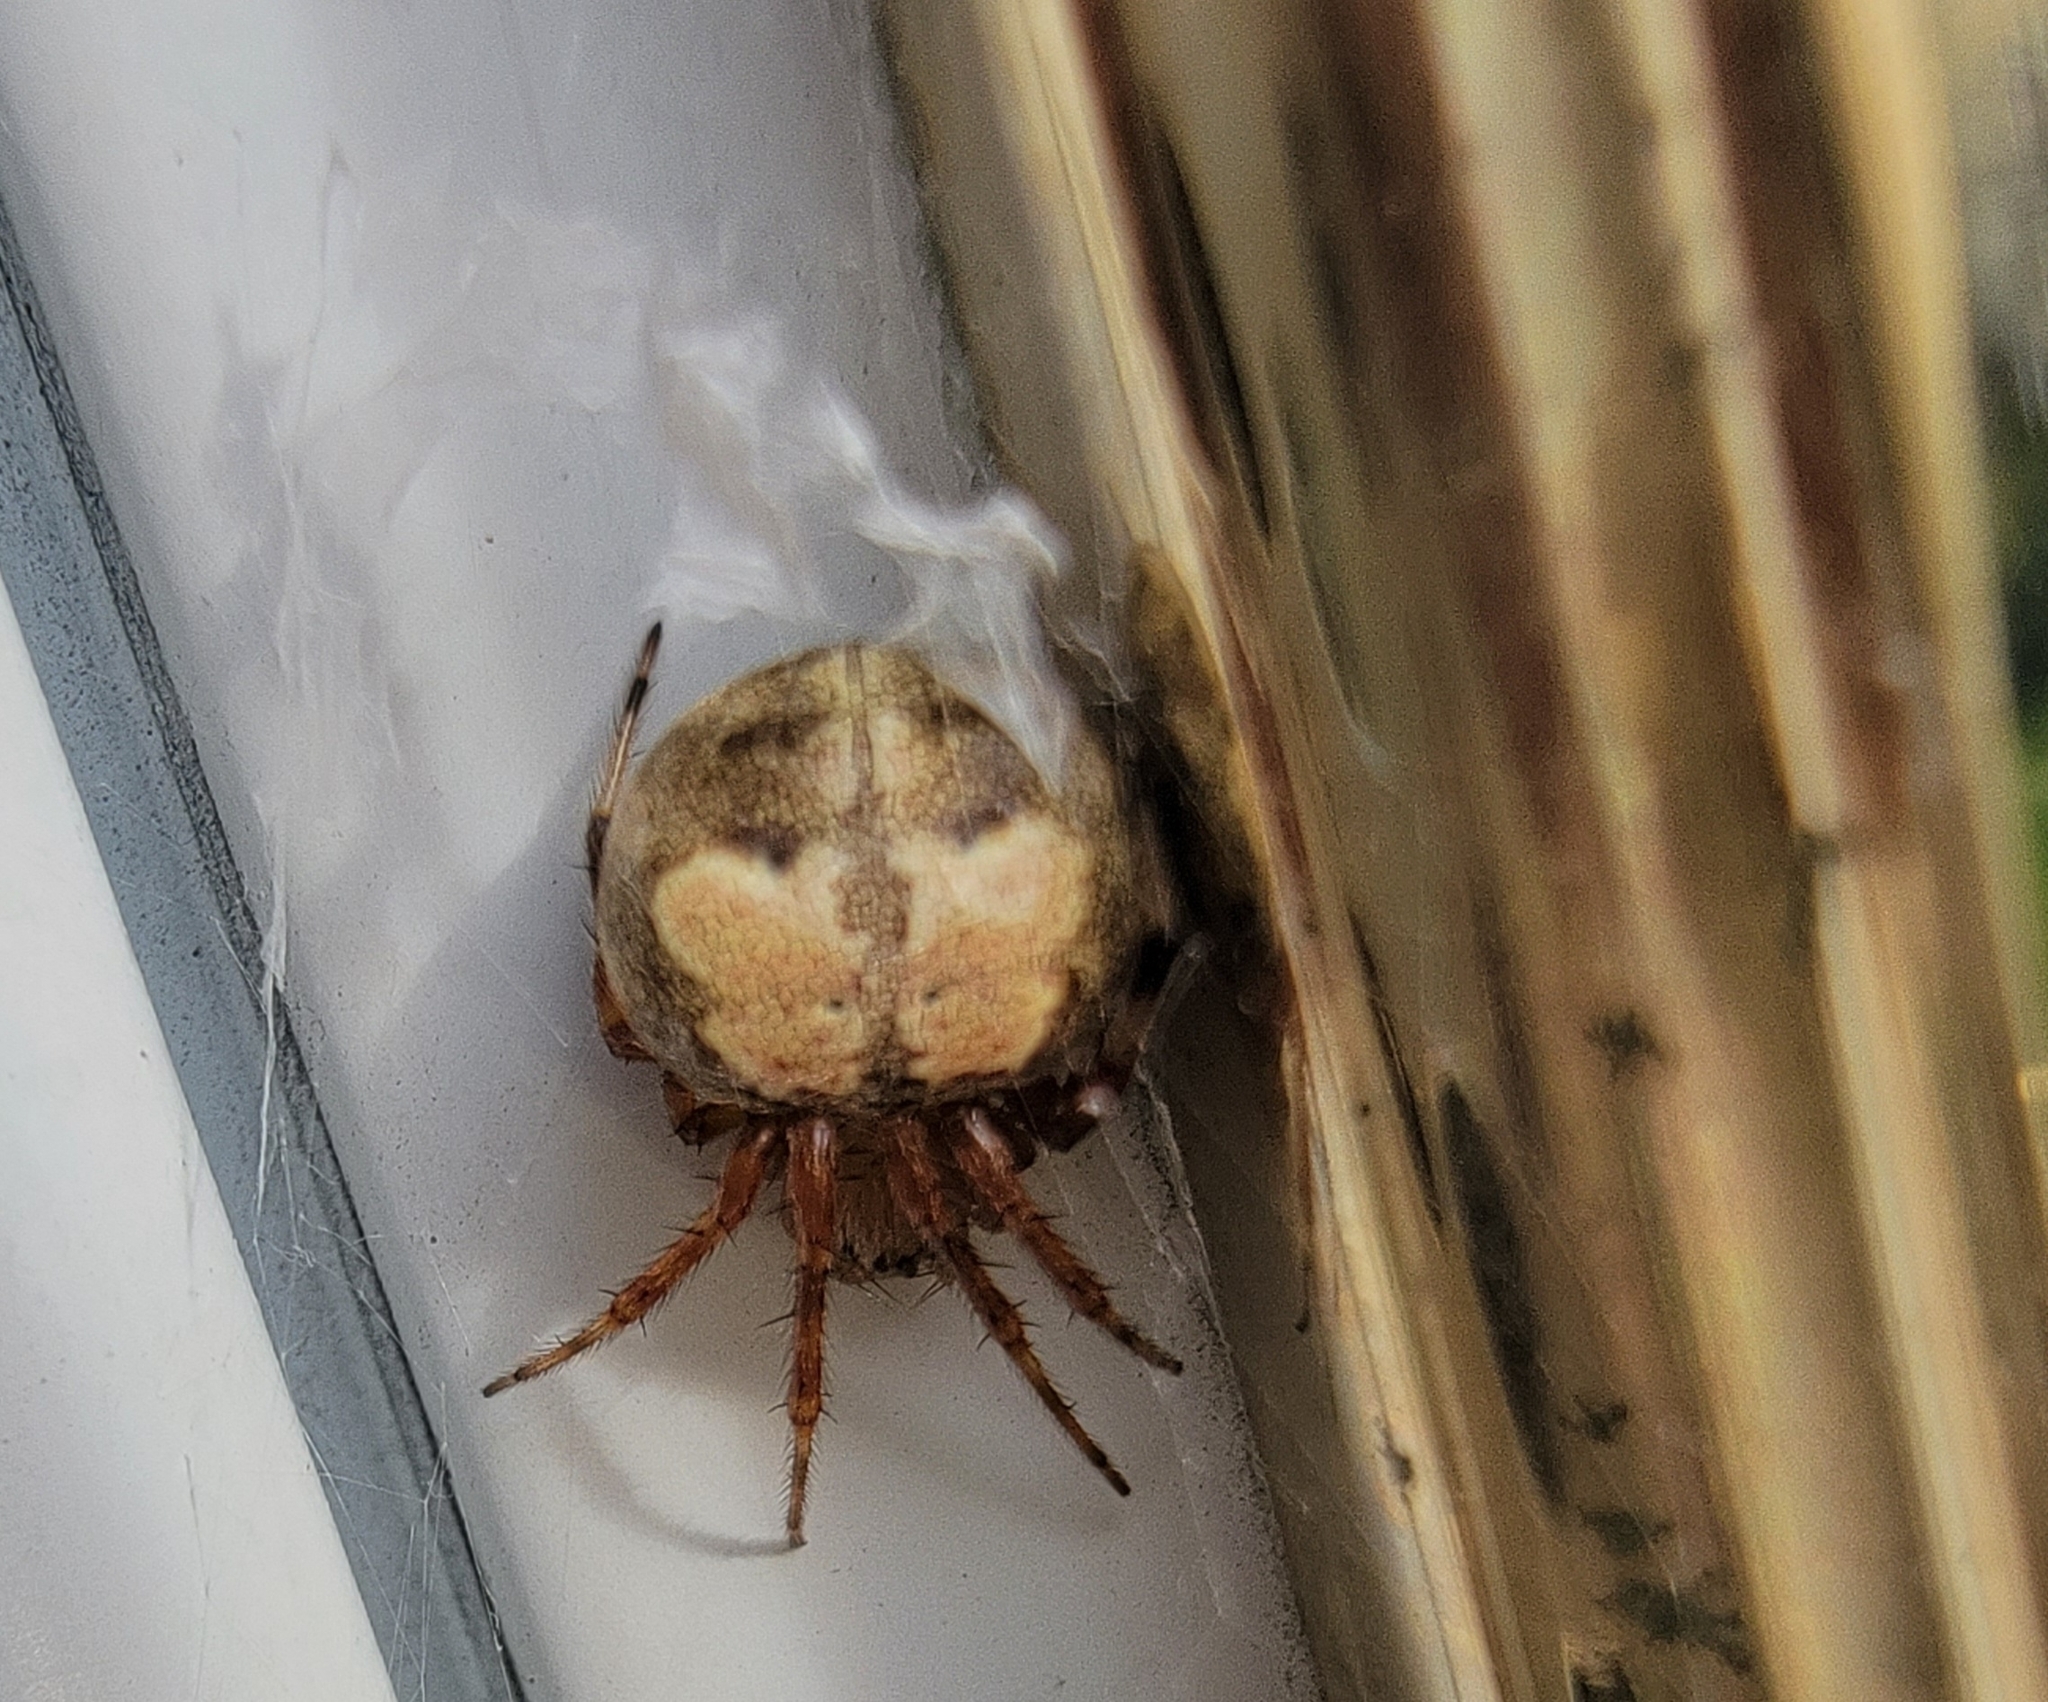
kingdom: Animalia
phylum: Arthropoda
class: Arachnida
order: Araneae
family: Araneidae
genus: Araneus
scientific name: Araneus pegnia
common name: Orb weavers
